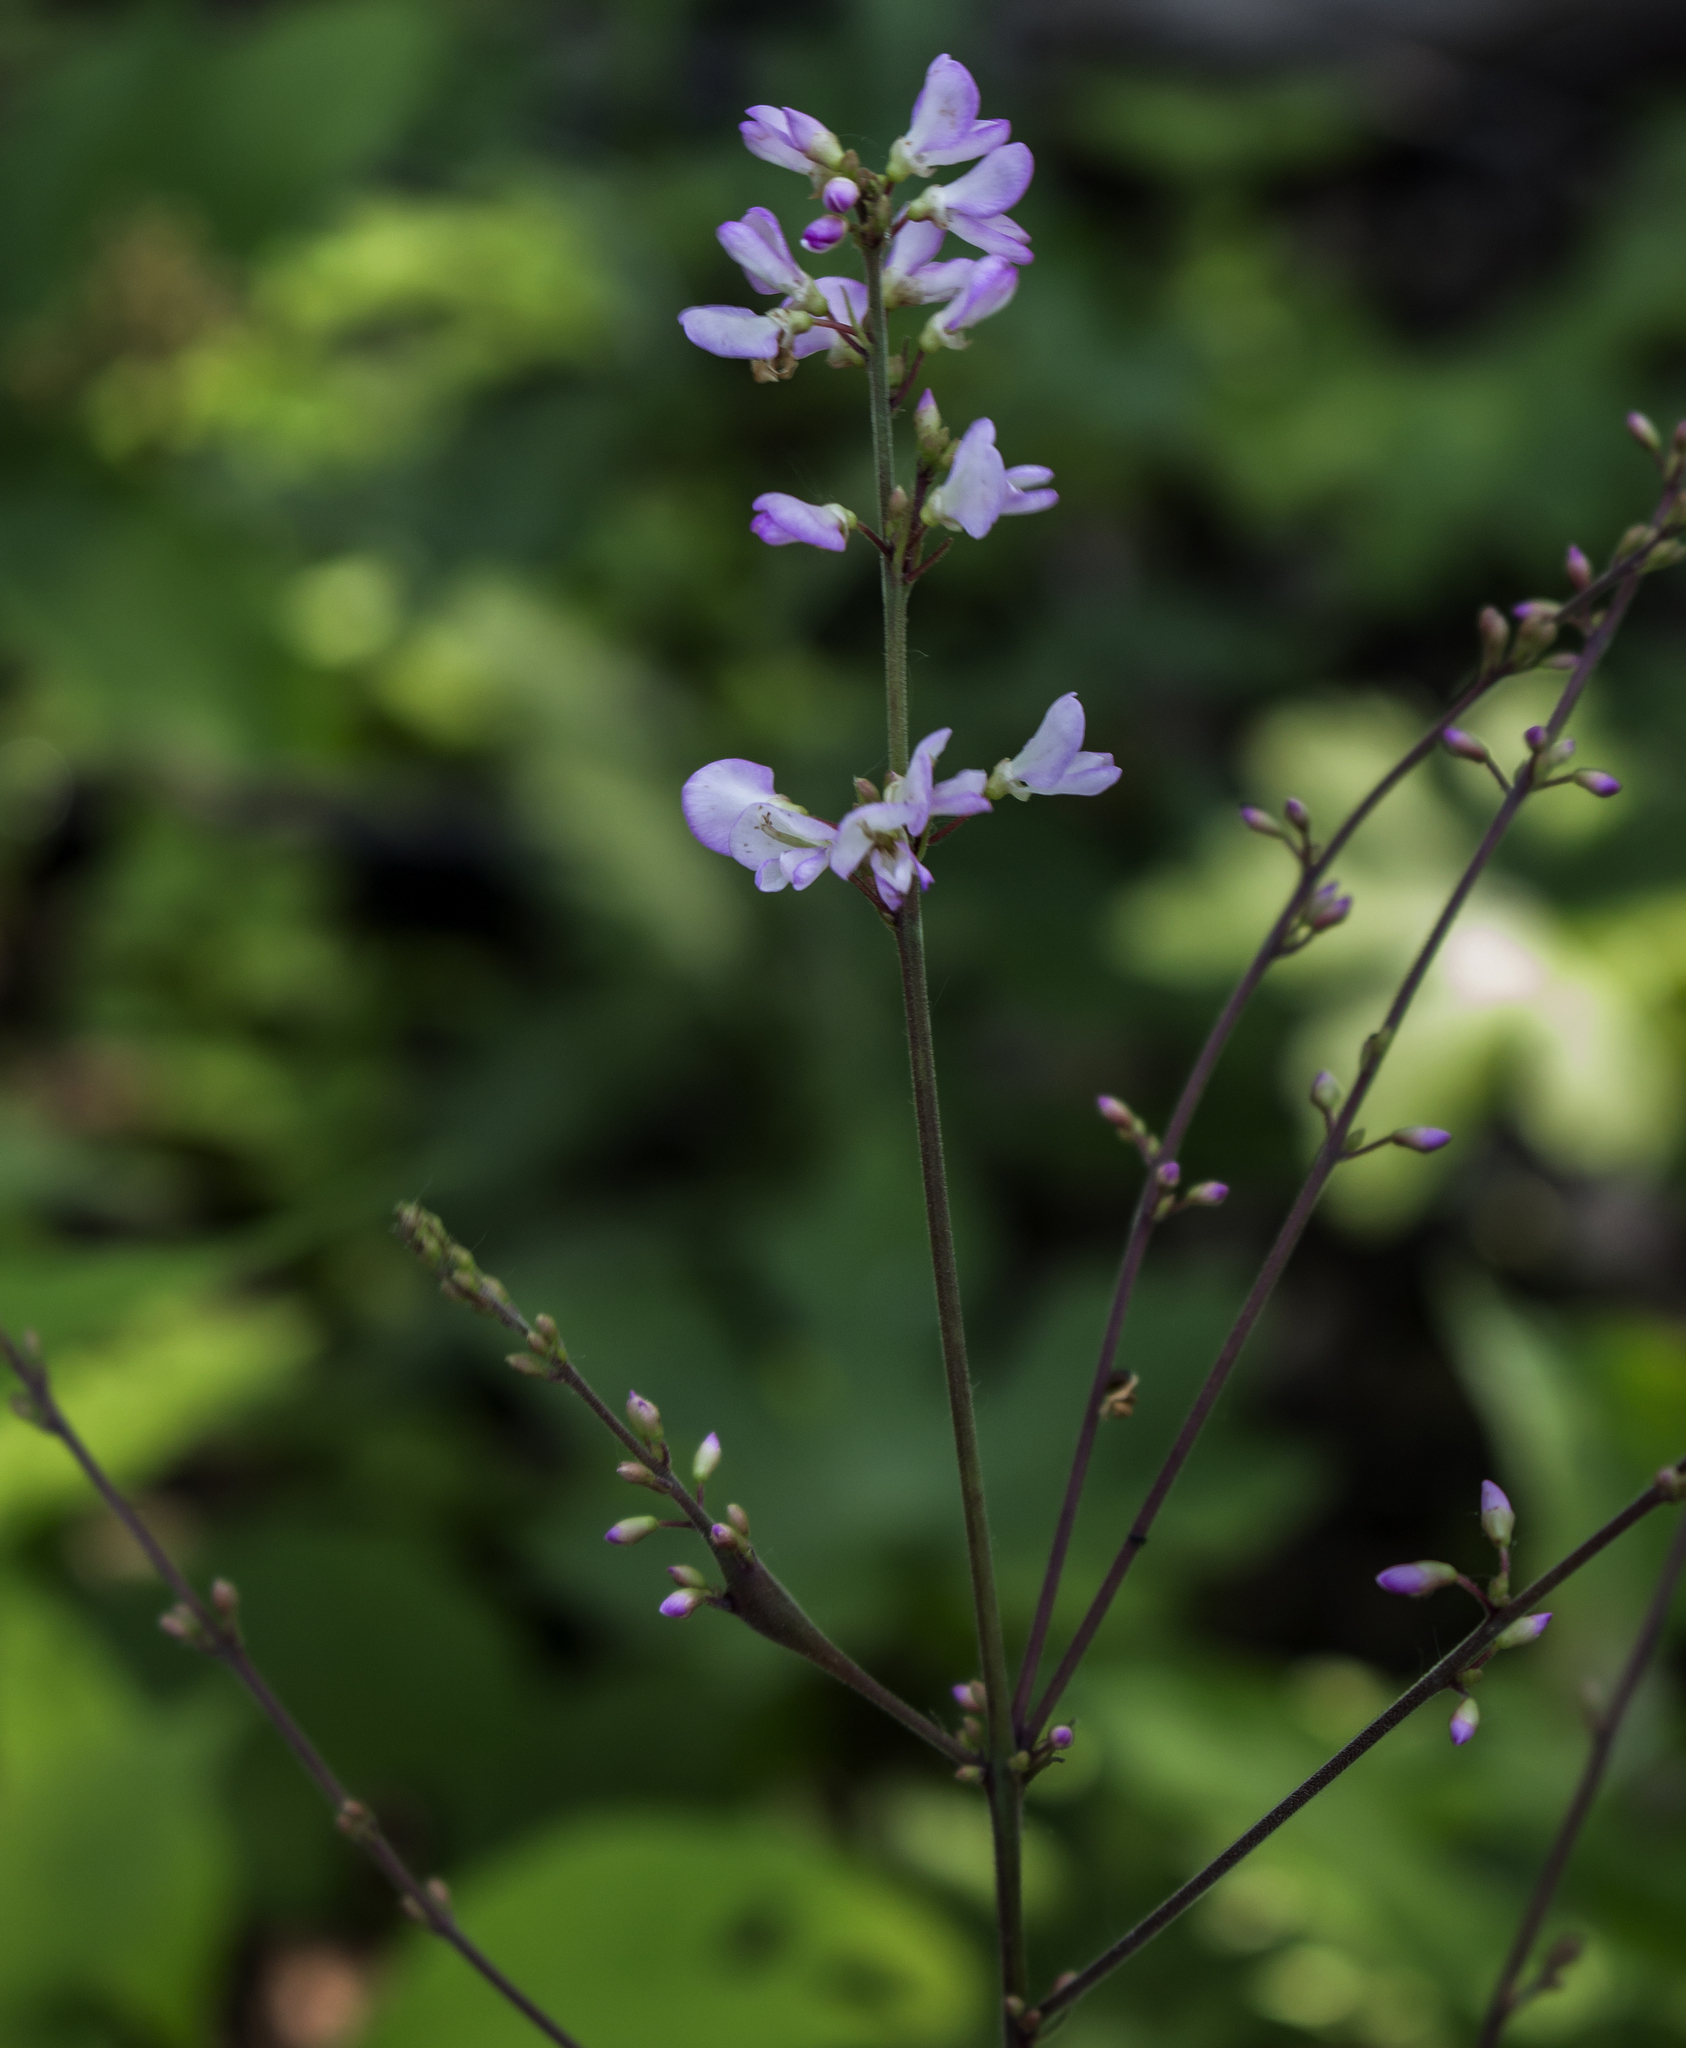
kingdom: Plantae
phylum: Tracheophyta
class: Magnoliopsida
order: Fabales
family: Fabaceae
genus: Hylodesmum
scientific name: Hylodesmum glutinosum
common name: Clustered-leaved tick-trefoil
